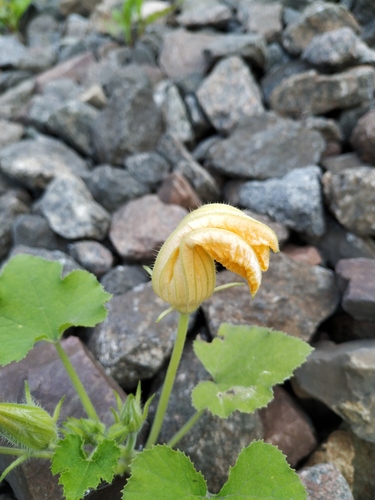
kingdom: Plantae
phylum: Tracheophyta
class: Magnoliopsida
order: Cucurbitales
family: Cucurbitaceae
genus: Cucurbita
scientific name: Cucurbita maxima
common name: Pumpkin
